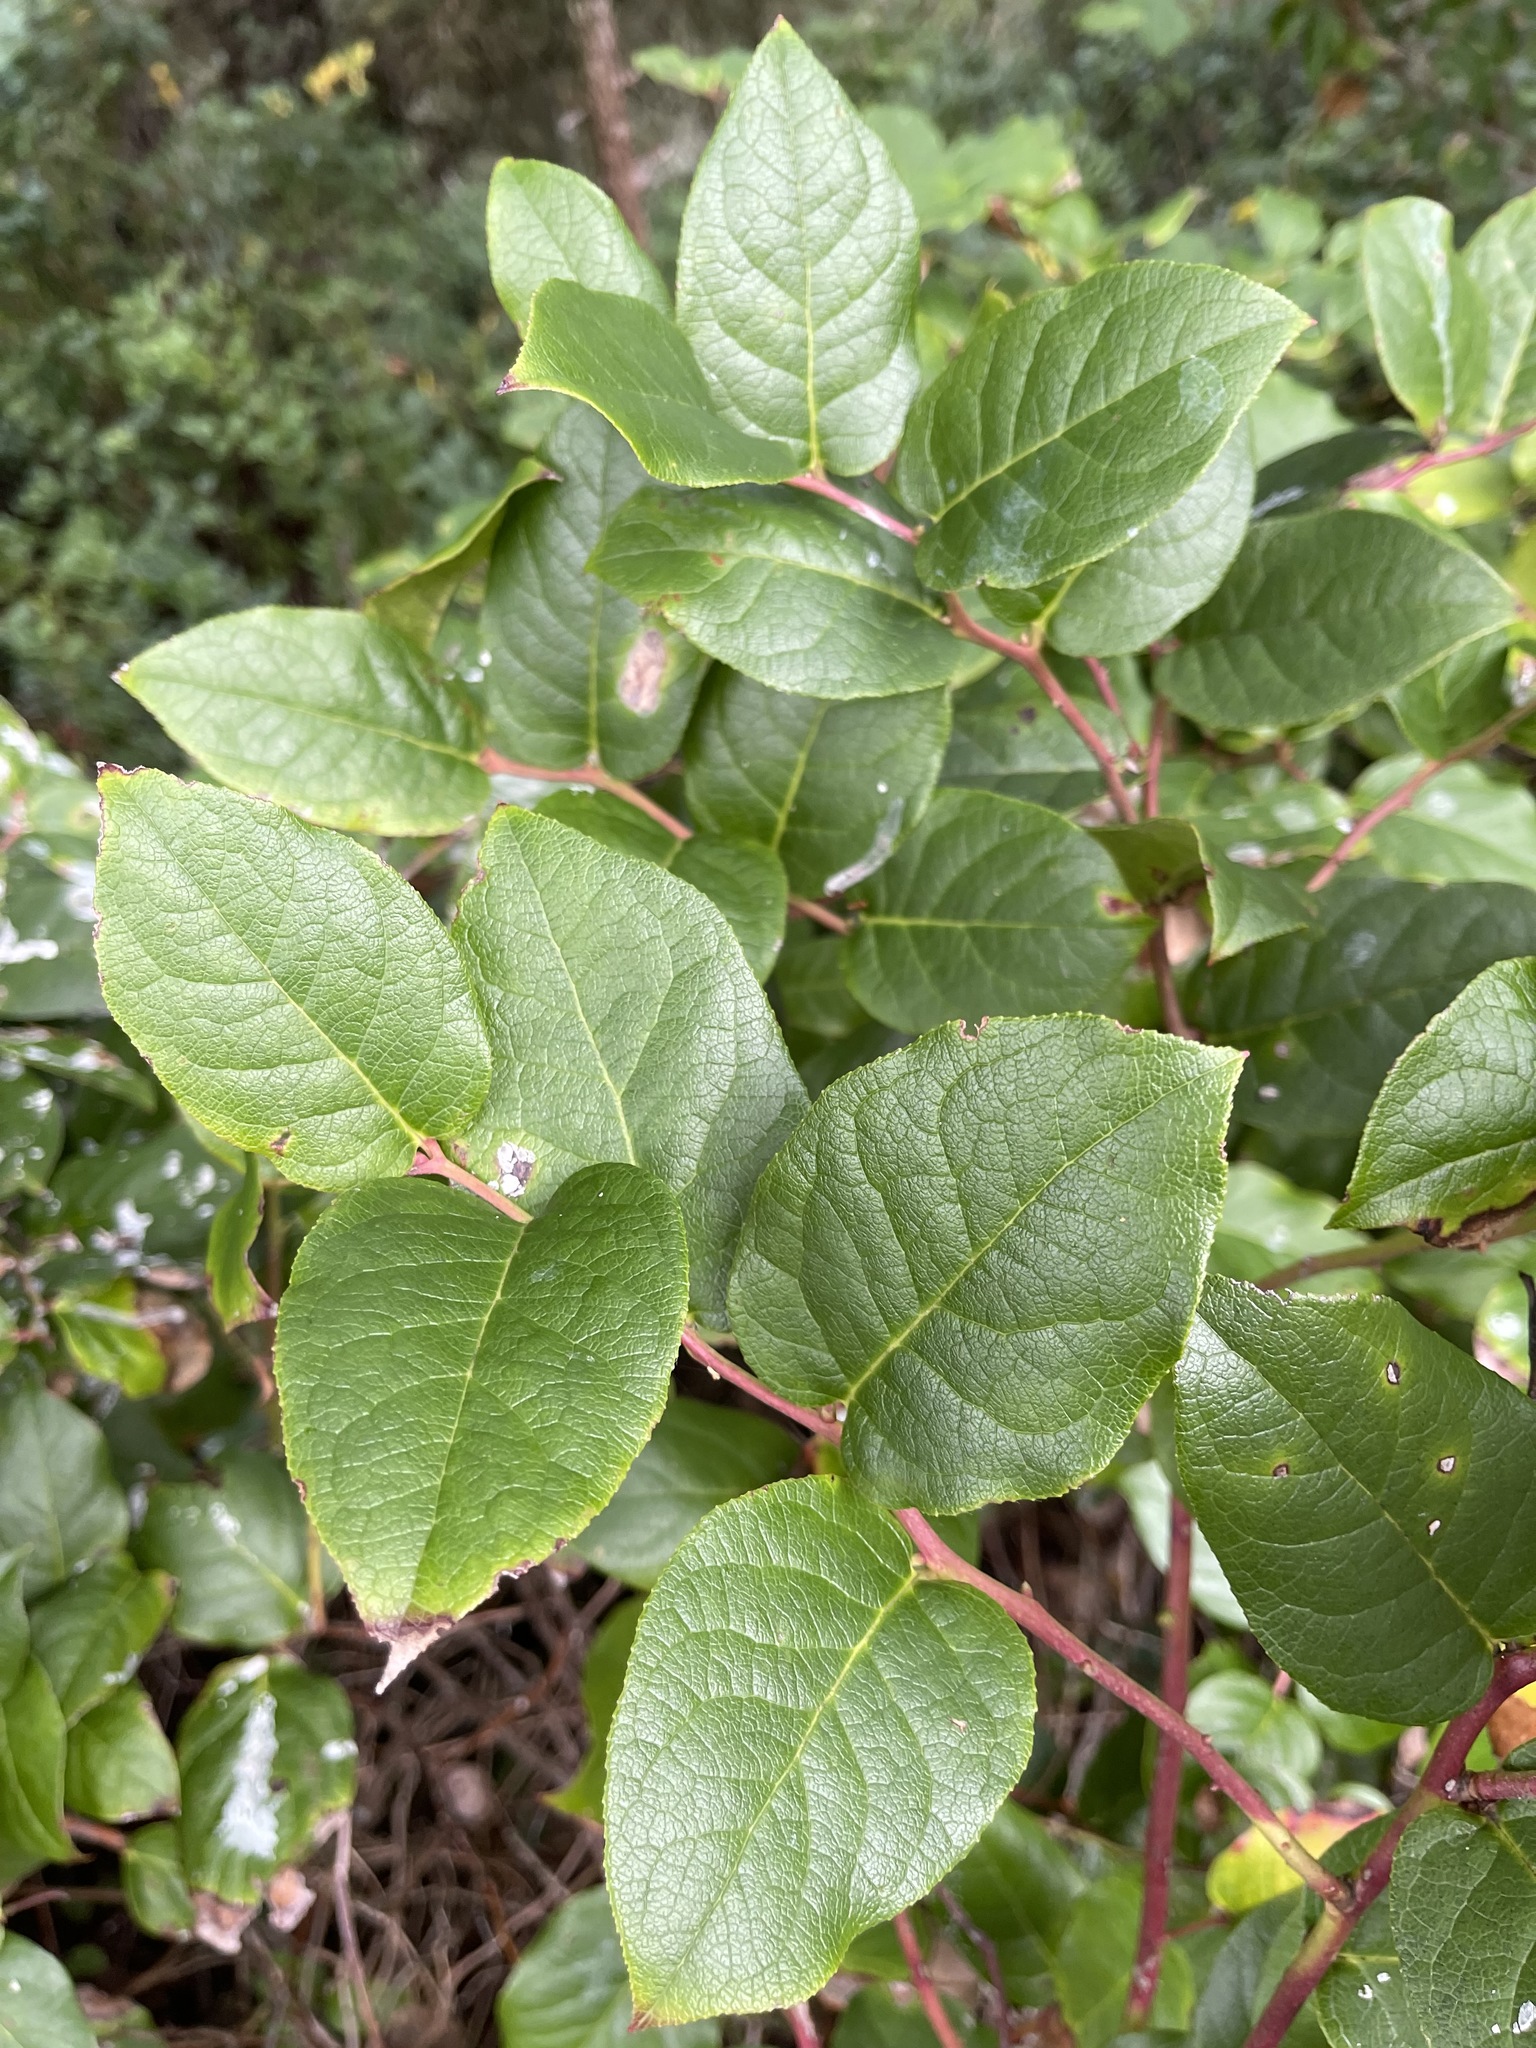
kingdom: Plantae
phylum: Tracheophyta
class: Magnoliopsida
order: Ericales
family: Ericaceae
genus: Gaultheria
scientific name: Gaultheria shallon
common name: Shallon
